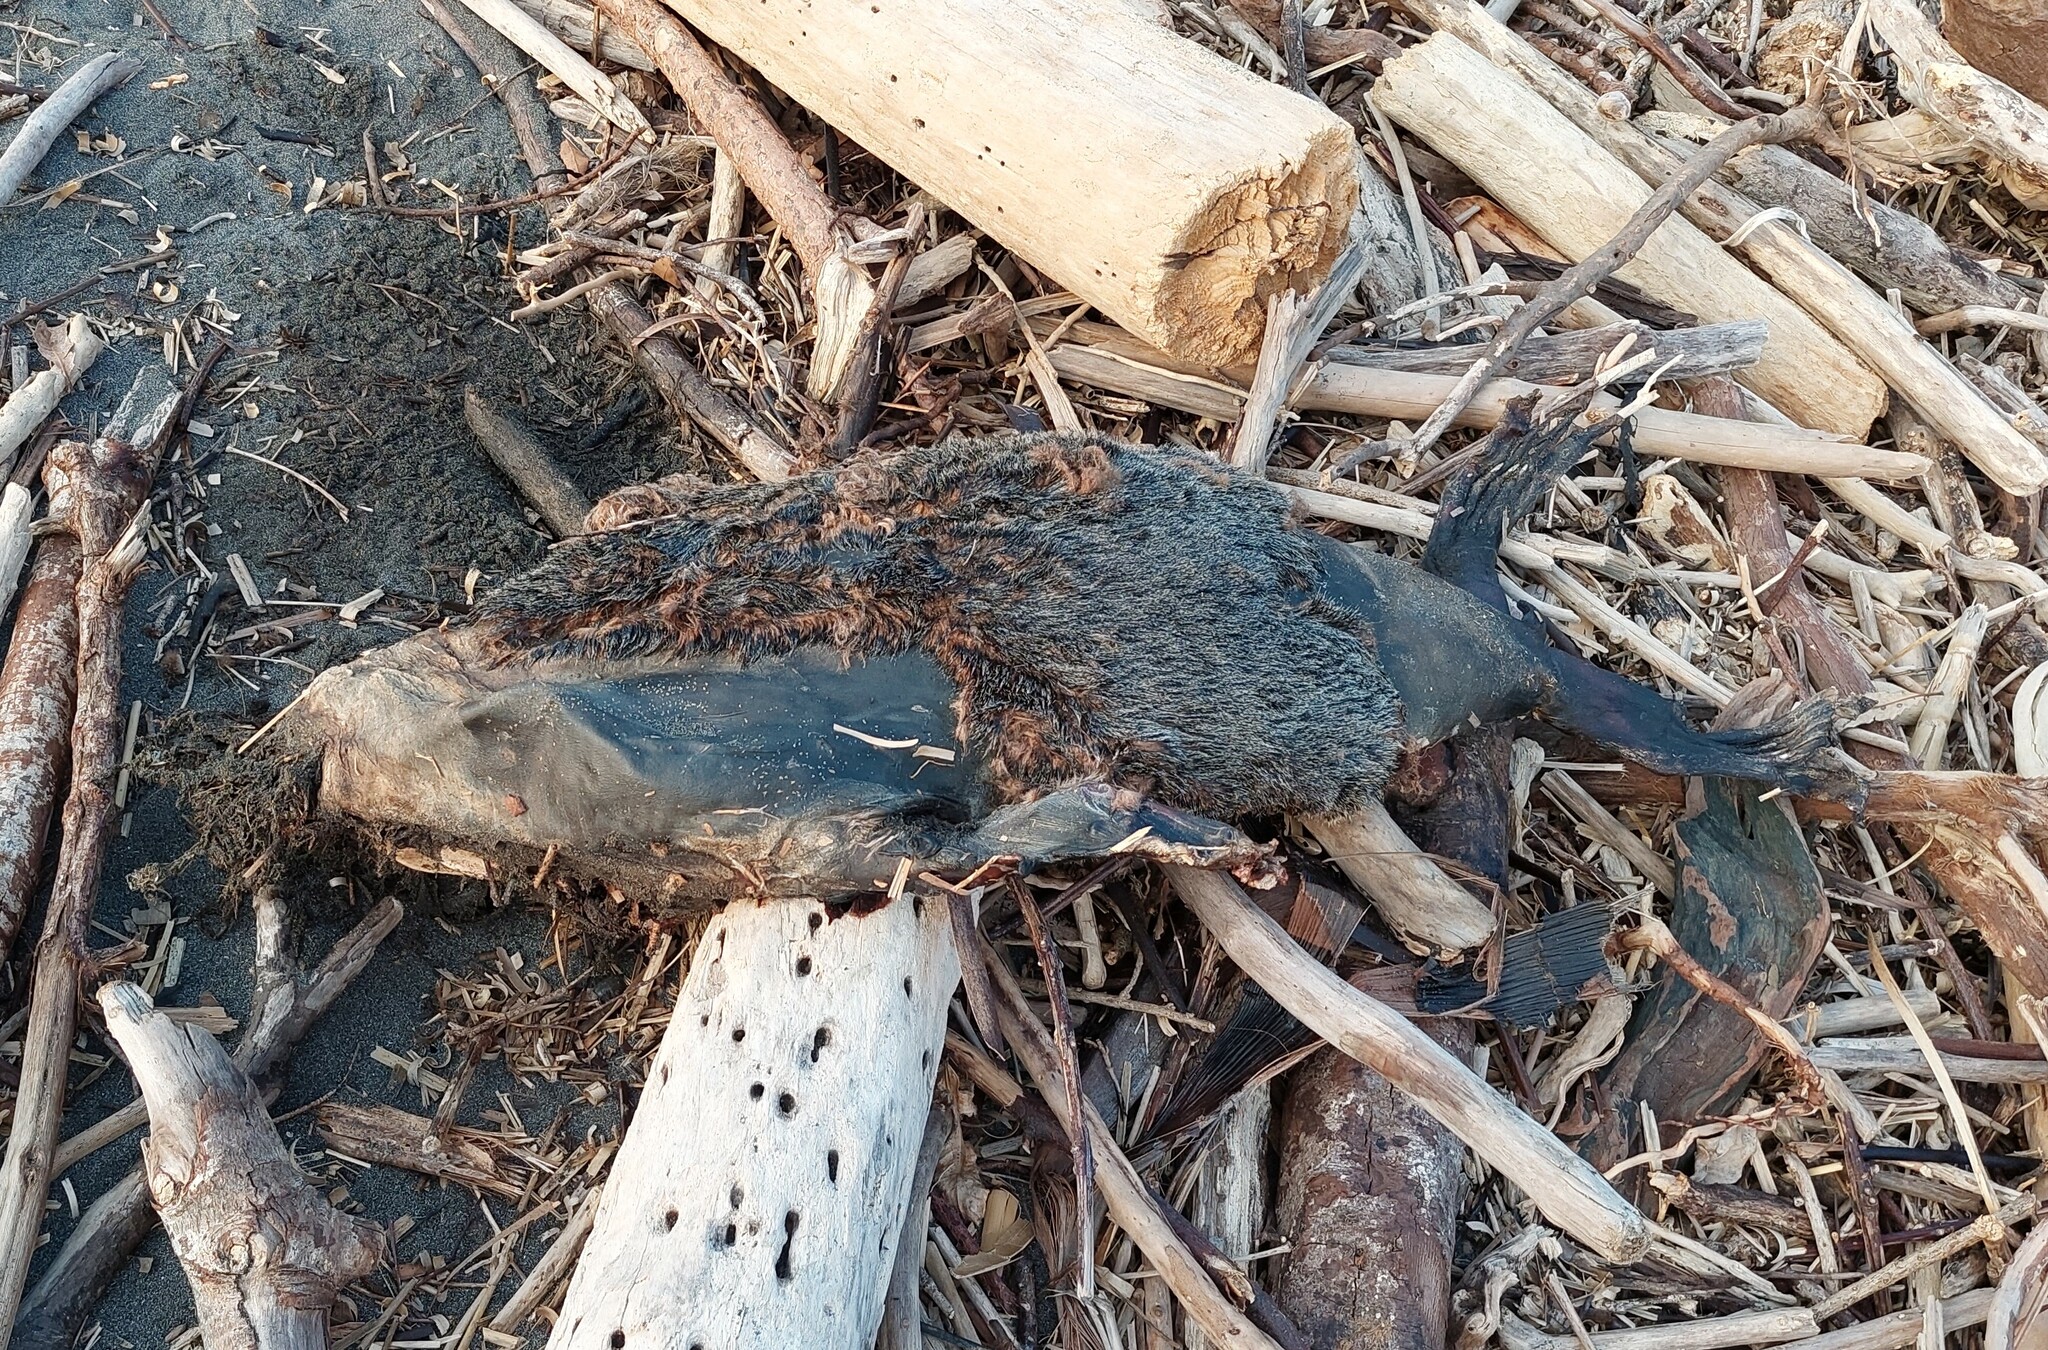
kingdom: Animalia
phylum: Chordata
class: Mammalia
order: Carnivora
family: Otariidae
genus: Arctocephalus
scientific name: Arctocephalus forsteri
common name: New zealand fur seal
